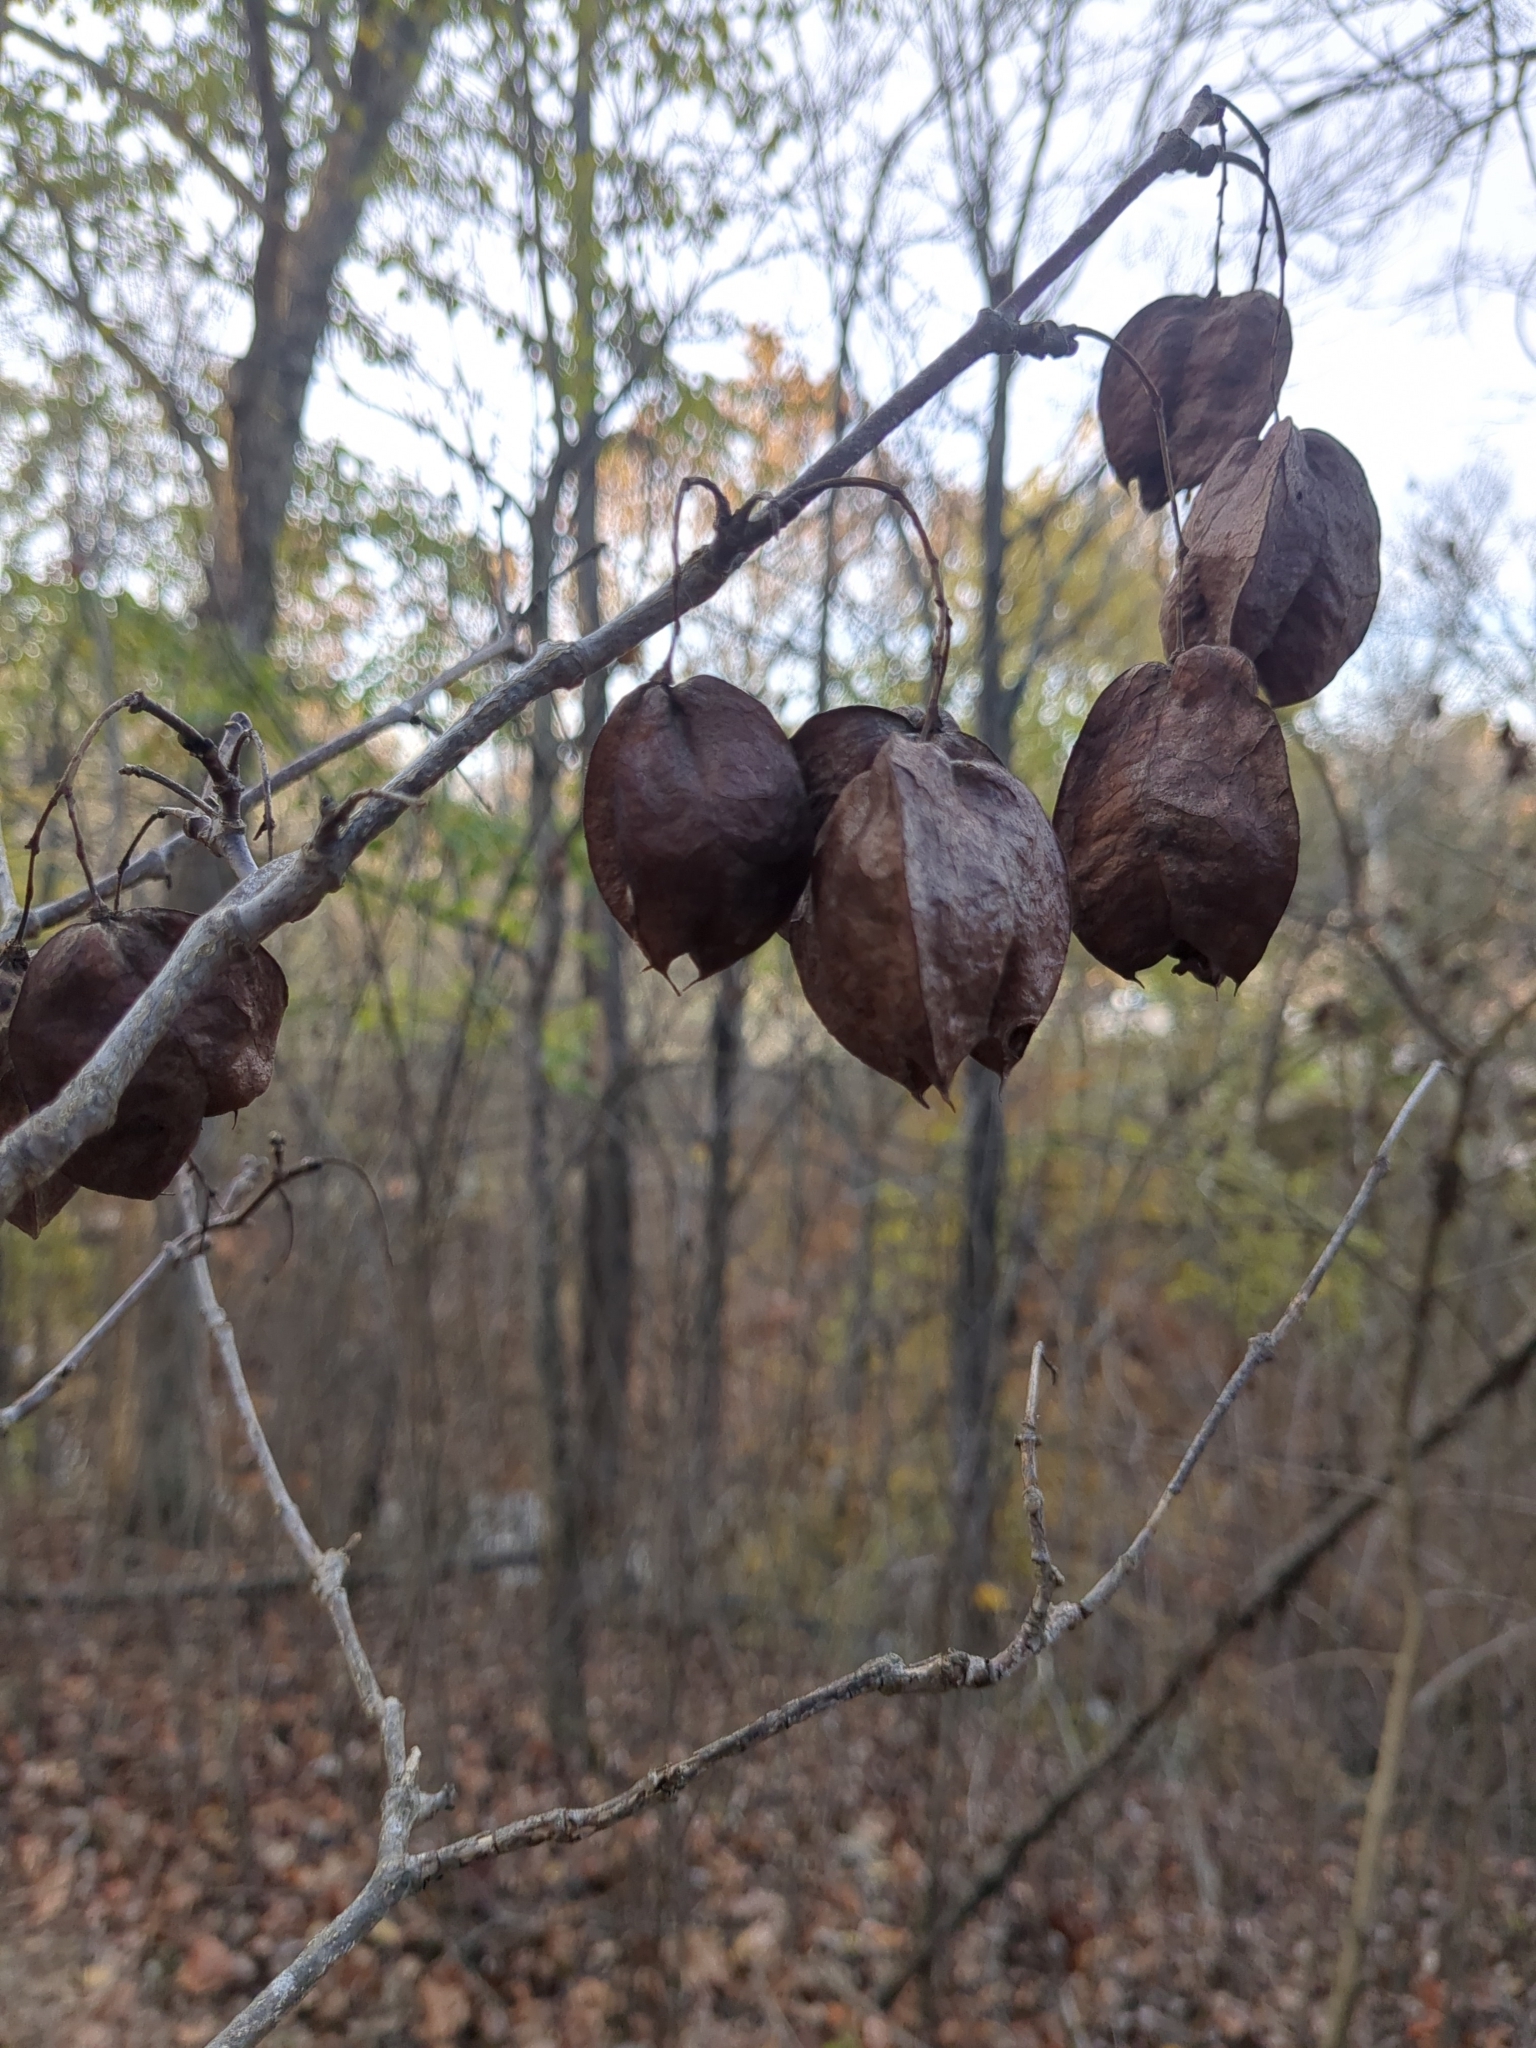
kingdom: Plantae
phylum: Tracheophyta
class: Magnoliopsida
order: Crossosomatales
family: Staphyleaceae
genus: Staphylea
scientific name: Staphylea trifolia
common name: American bladdernut
